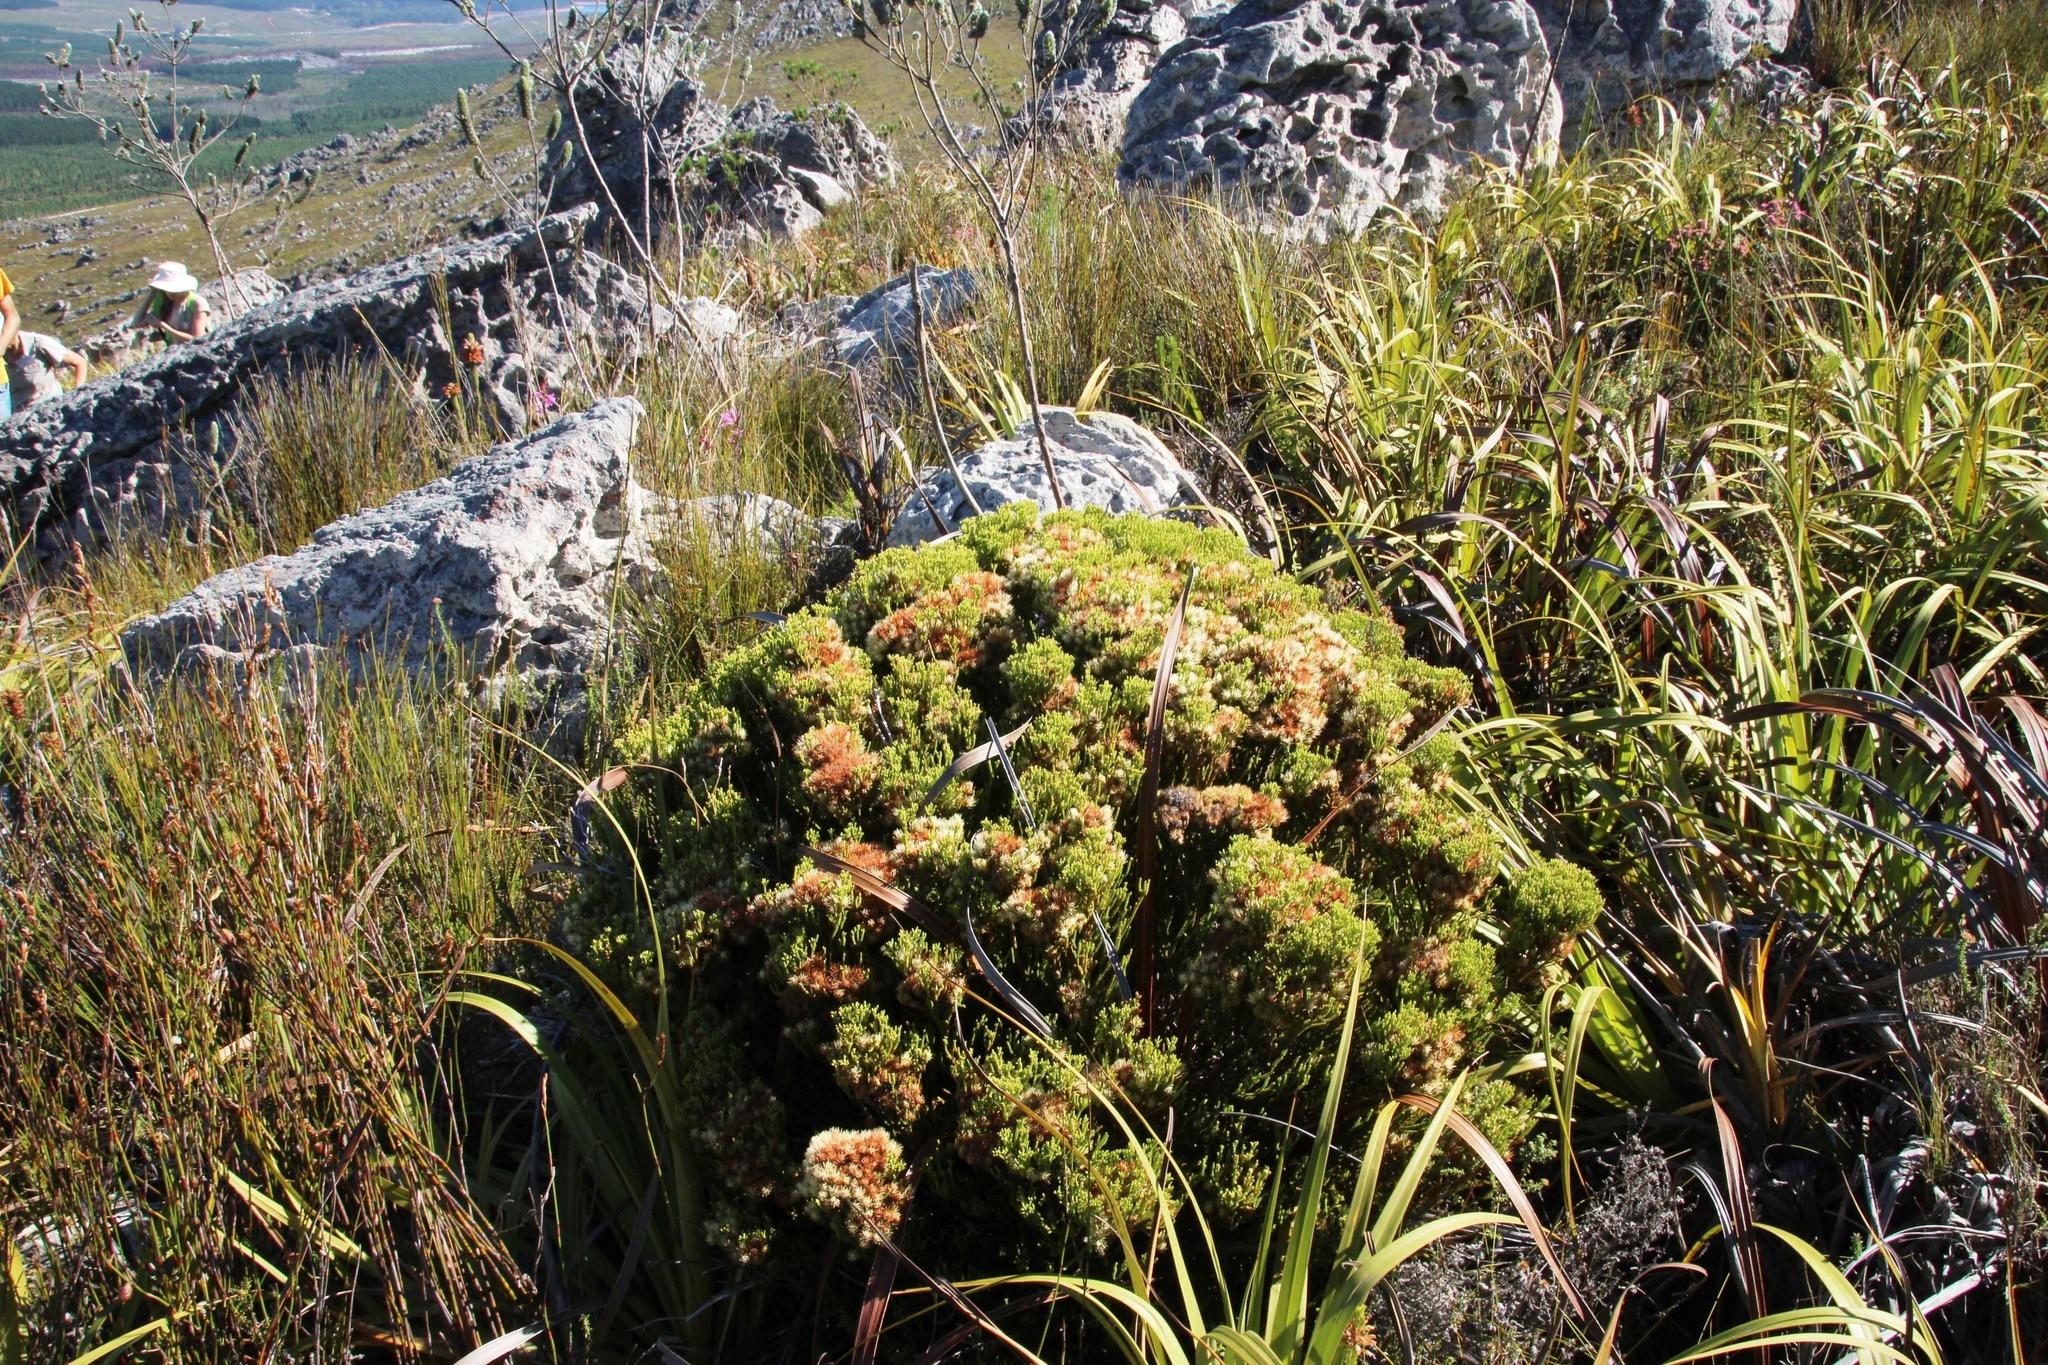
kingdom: Plantae
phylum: Tracheophyta
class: Magnoliopsida
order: Bruniales
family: Bruniaceae
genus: Brunia
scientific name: Brunia paleacea
